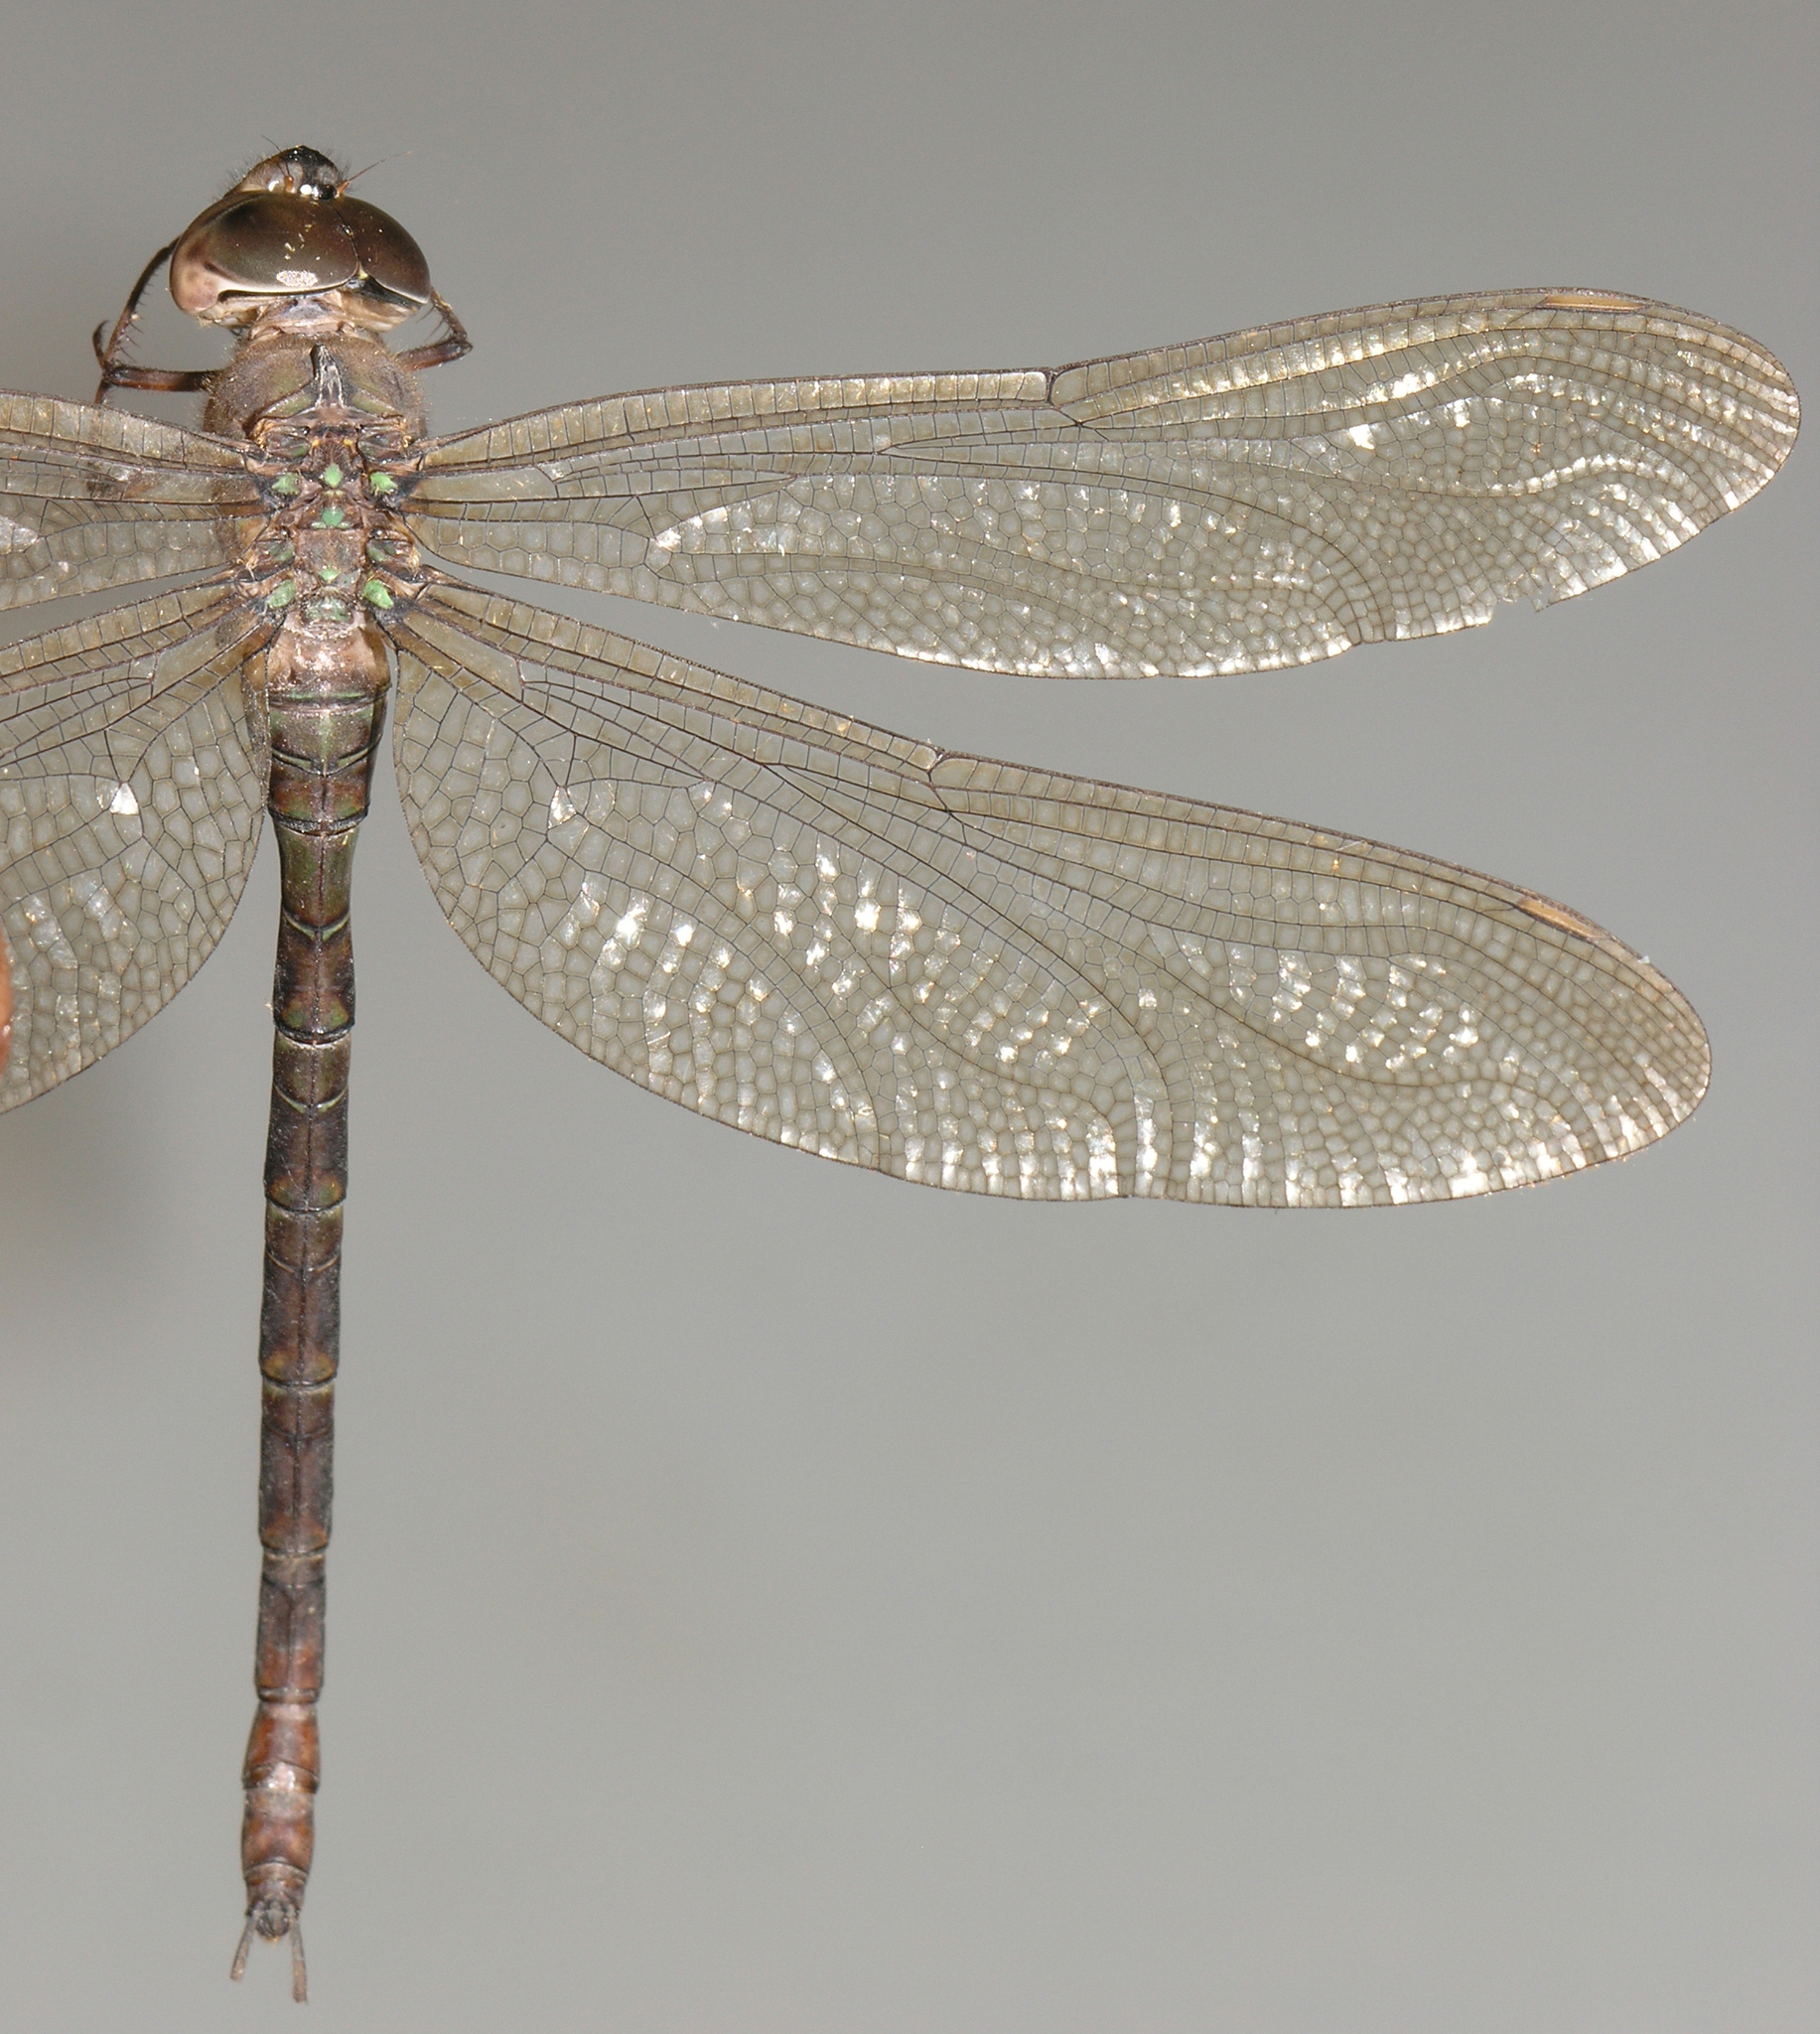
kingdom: Animalia
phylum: Arthropoda
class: Insecta
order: Odonata
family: Aeshnidae
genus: Gynacantha
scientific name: Gynacantha subinterrupta
